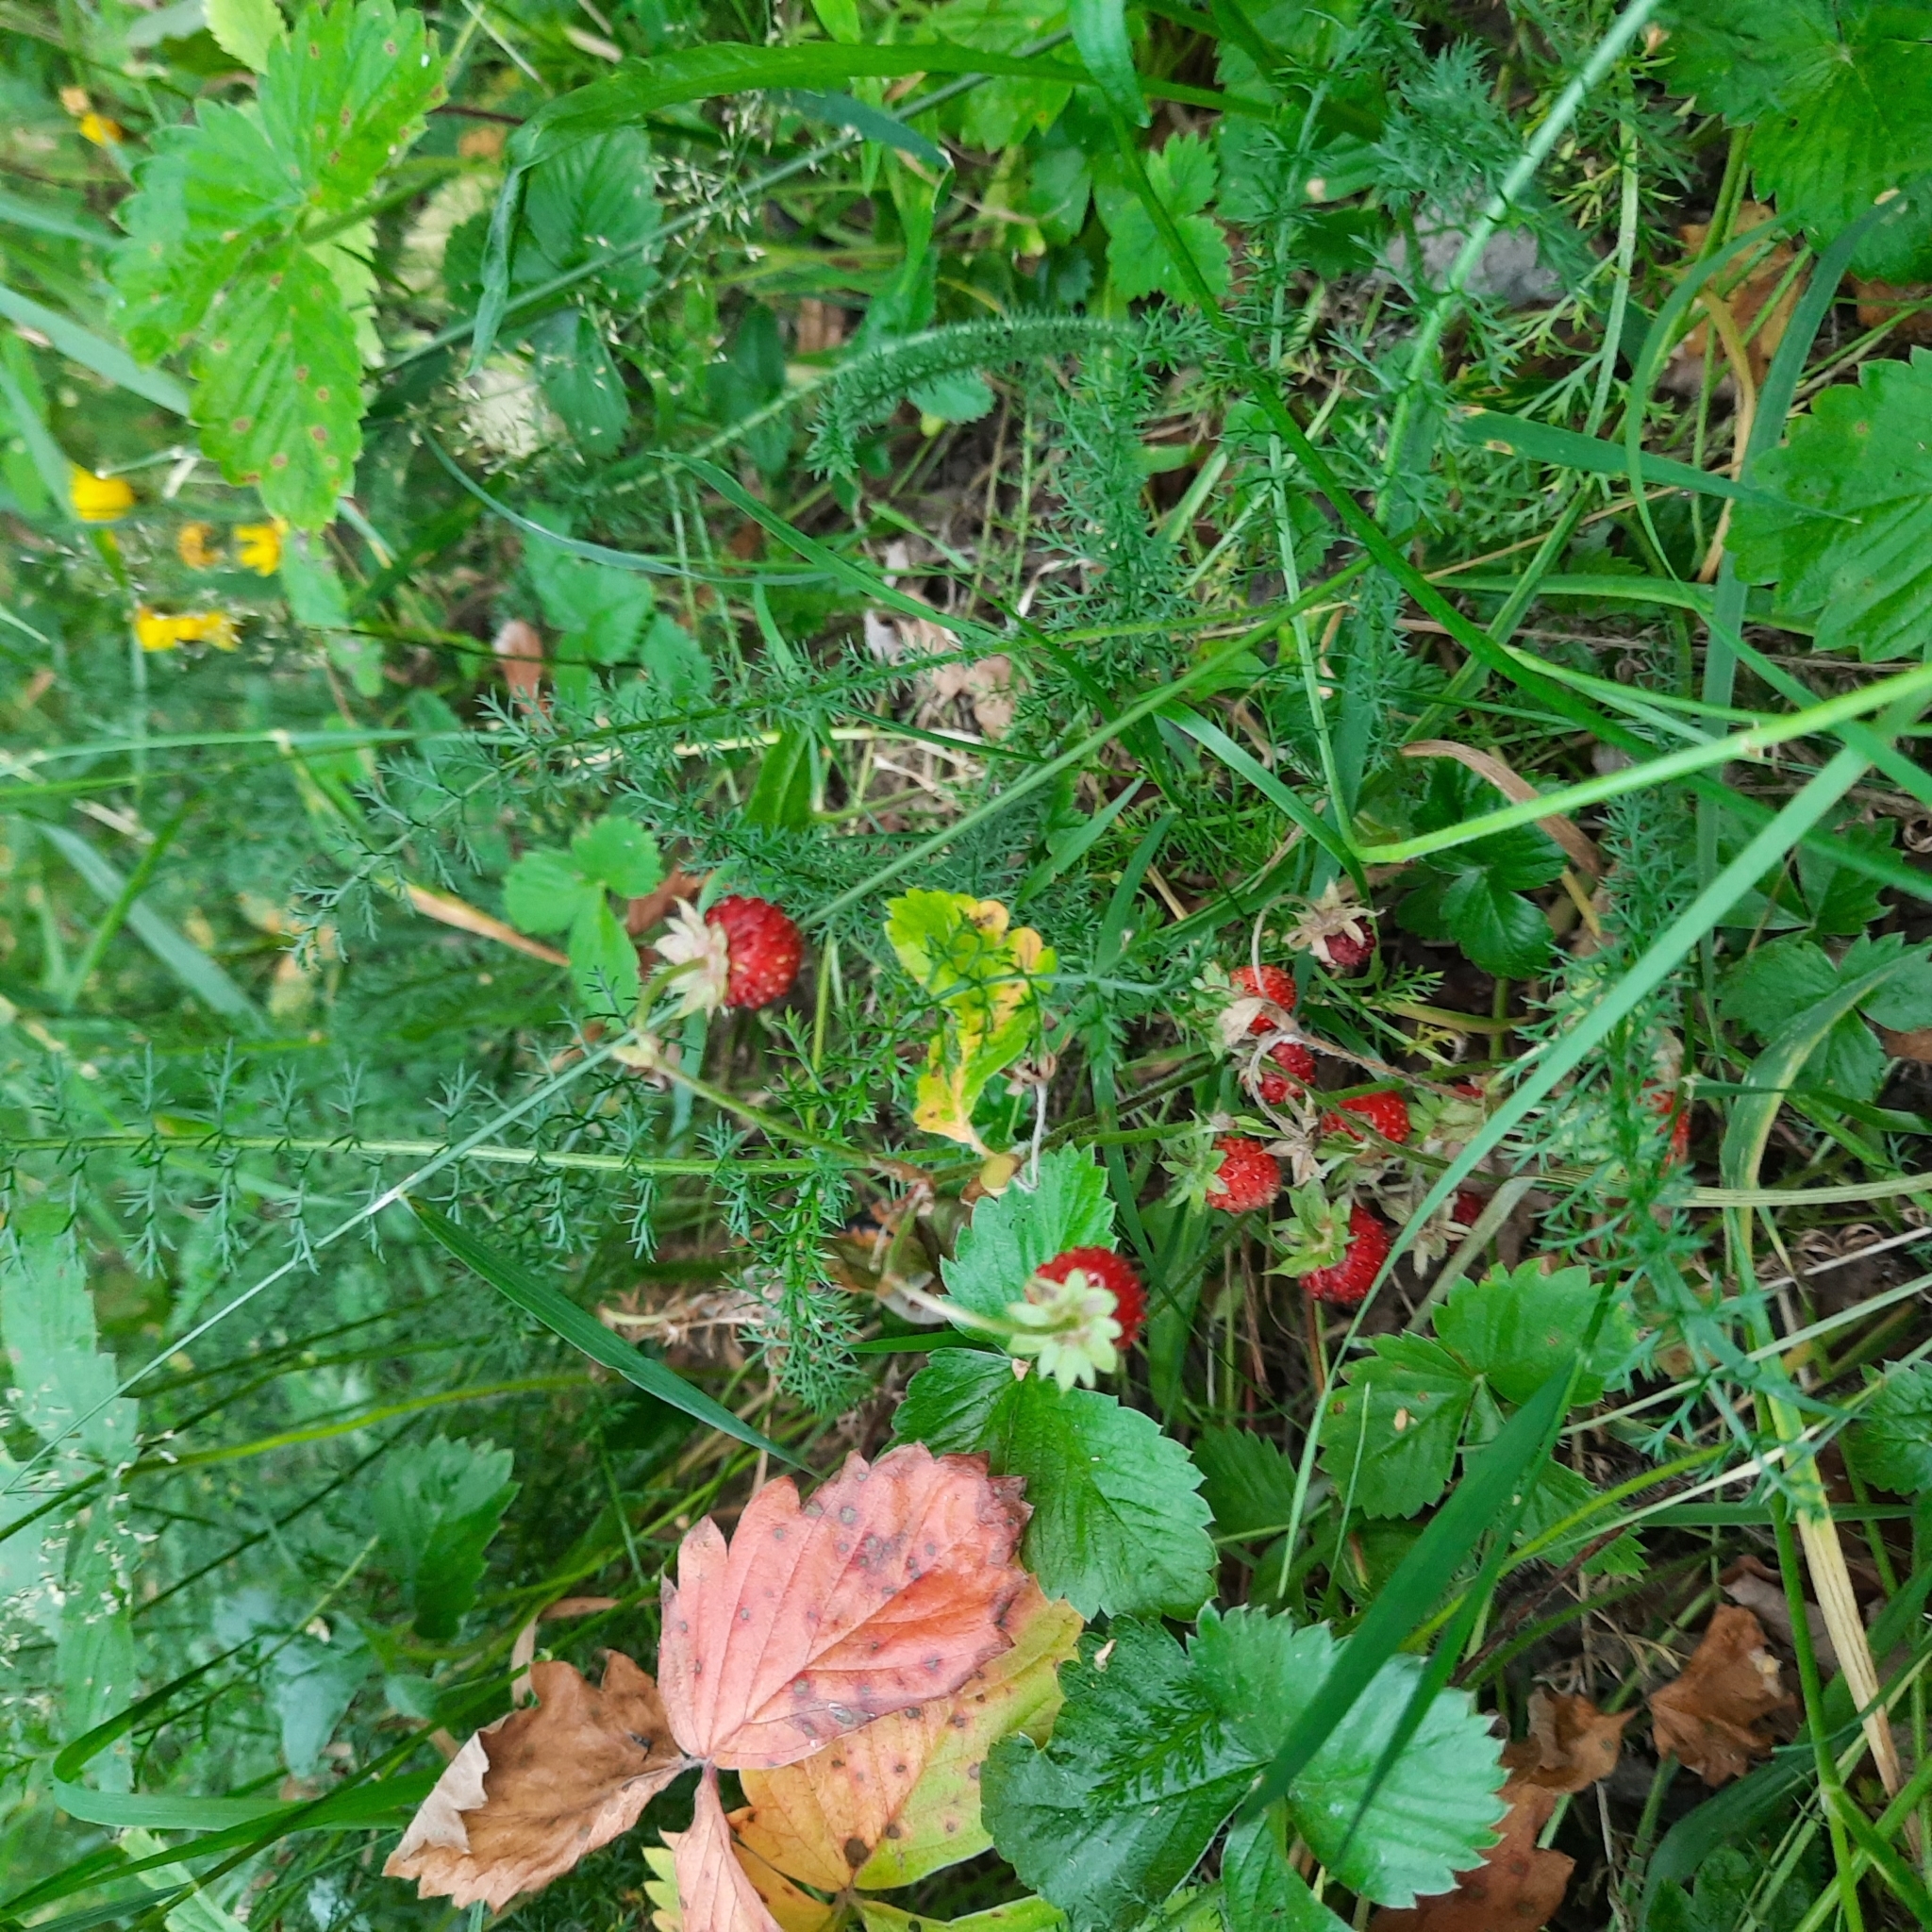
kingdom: Plantae
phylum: Tracheophyta
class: Magnoliopsida
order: Rosales
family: Rosaceae
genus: Fragaria
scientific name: Fragaria vesca
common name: Wild strawberry
